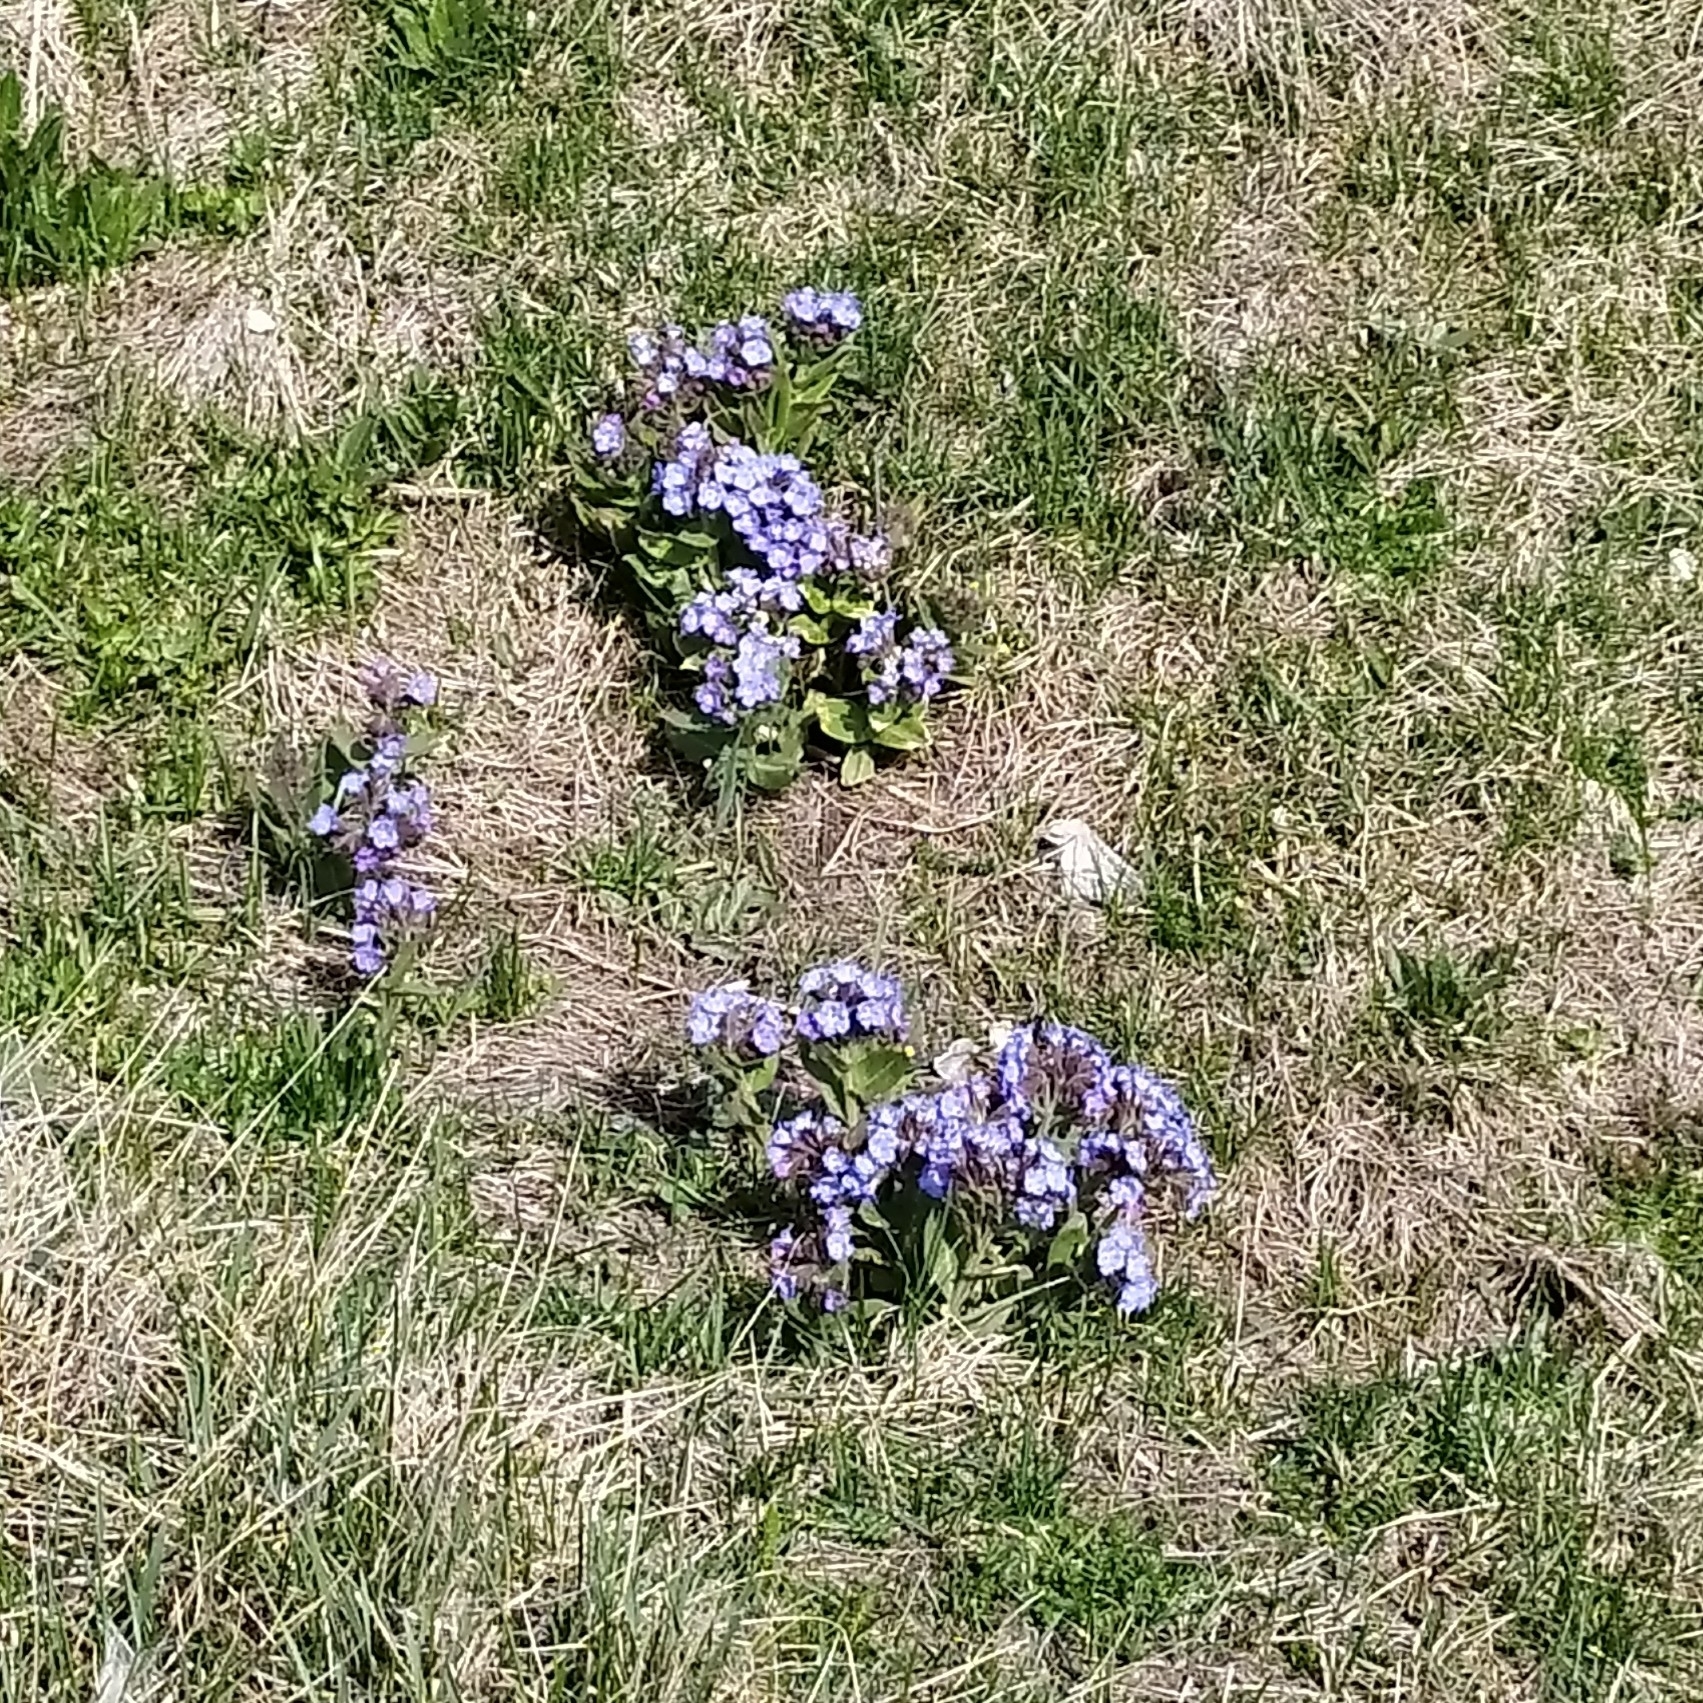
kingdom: Plantae
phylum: Tracheophyta
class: Magnoliopsida
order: Boraginales
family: Boraginaceae
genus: Pulmonaria
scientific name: Pulmonaria mollis
